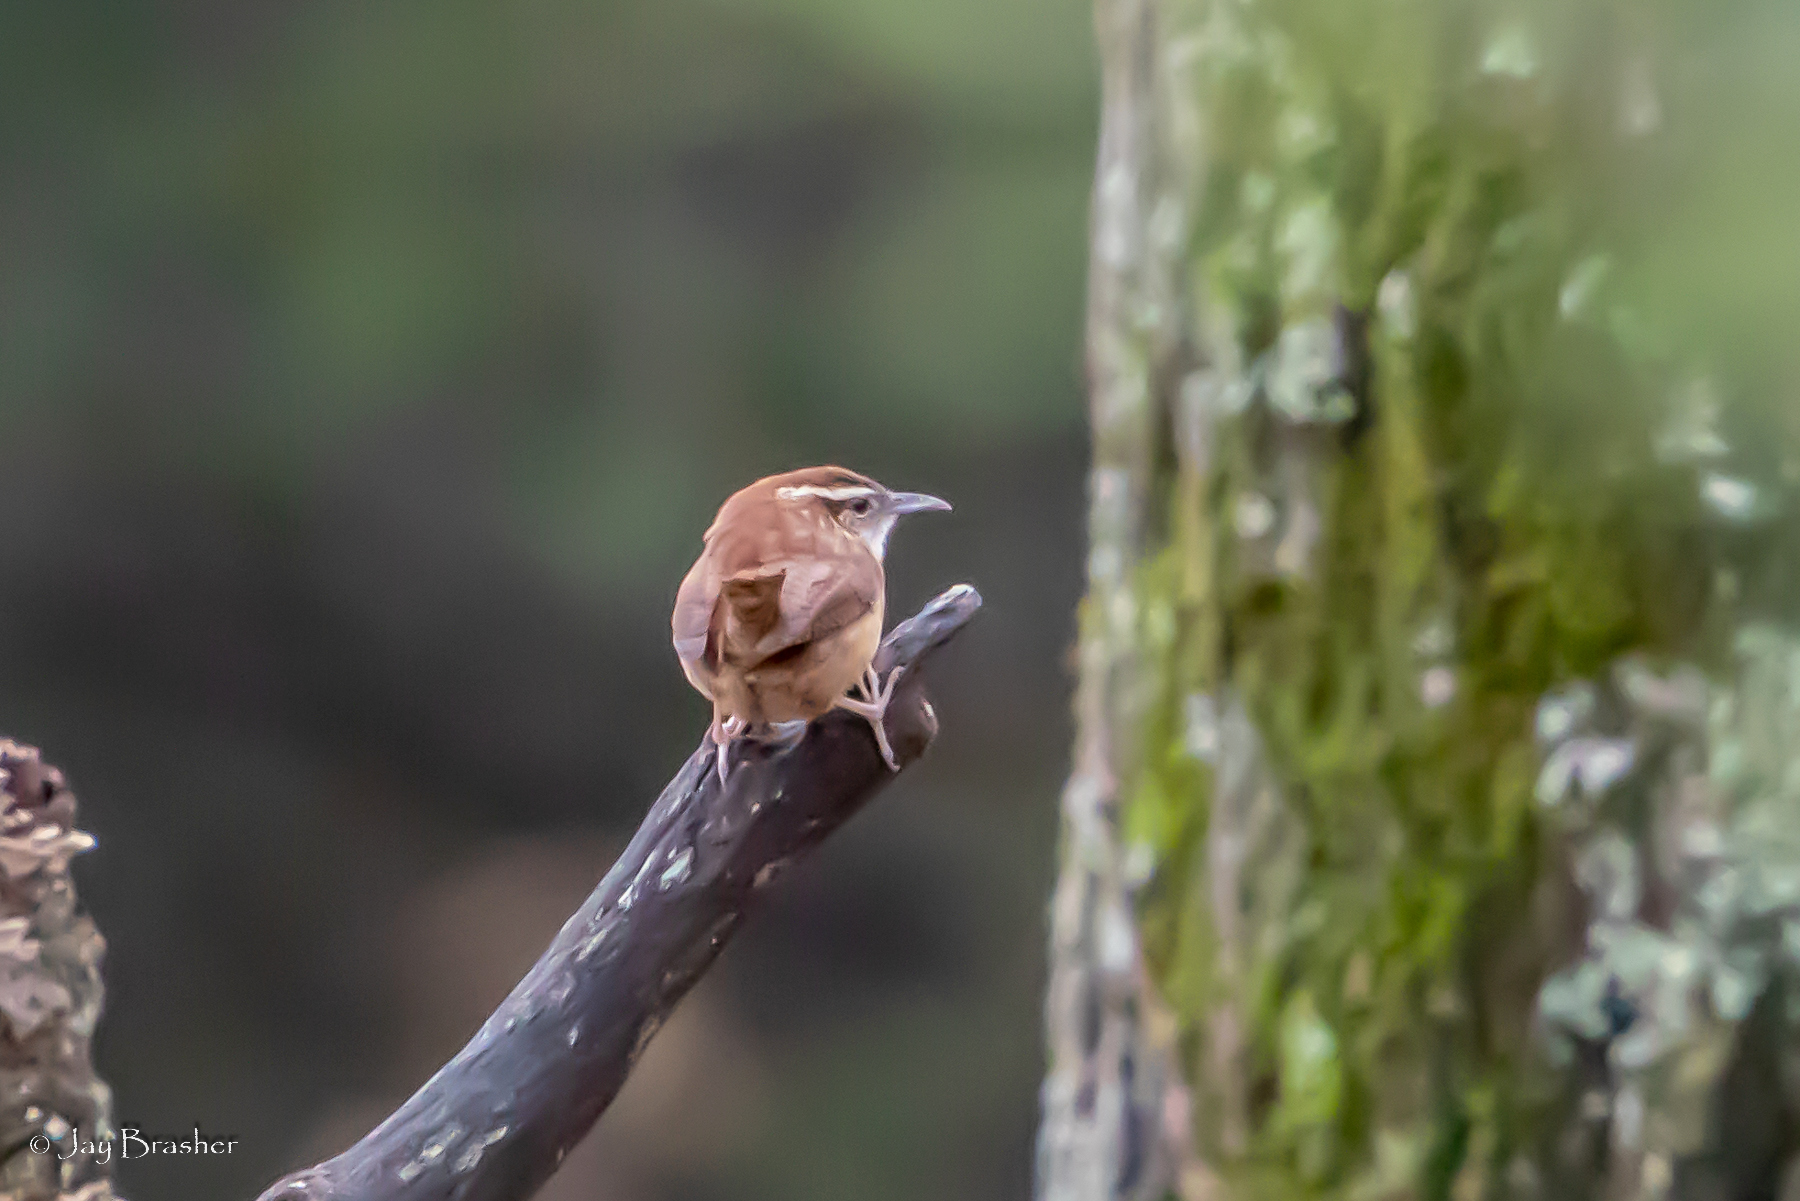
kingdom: Animalia
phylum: Chordata
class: Aves
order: Passeriformes
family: Troglodytidae
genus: Thryothorus
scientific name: Thryothorus ludovicianus
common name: Carolina wren
